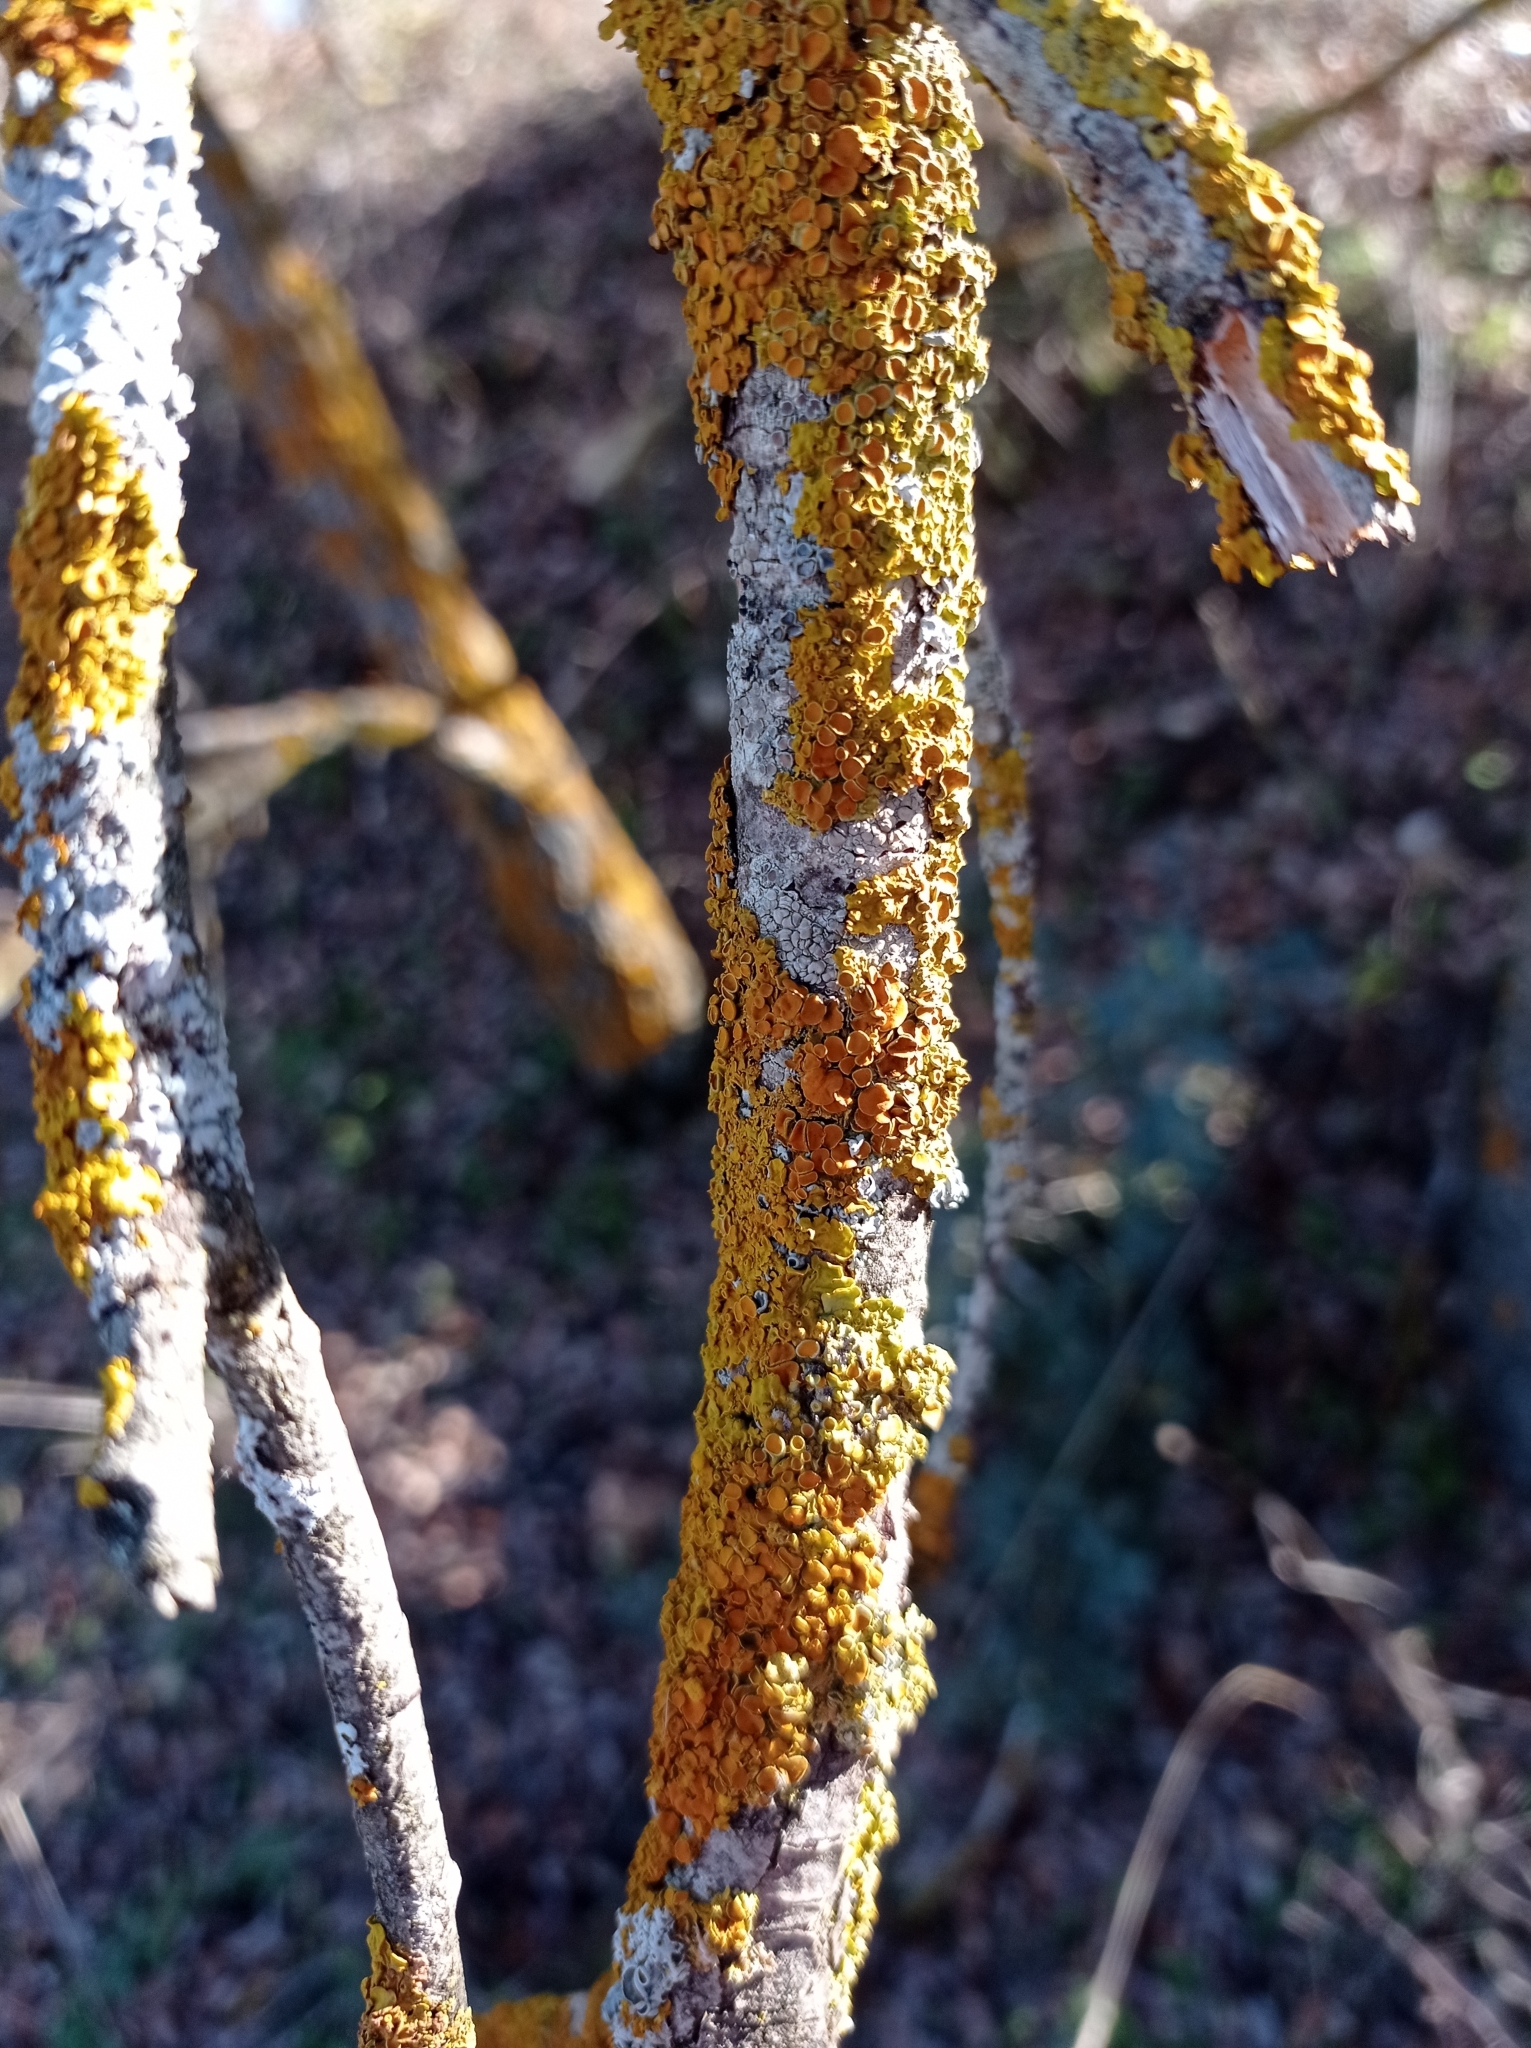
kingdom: Fungi
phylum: Ascomycota
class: Lecanoromycetes
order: Teloschistales
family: Teloschistaceae
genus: Xanthoria
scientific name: Xanthoria parietina
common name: Common orange lichen
